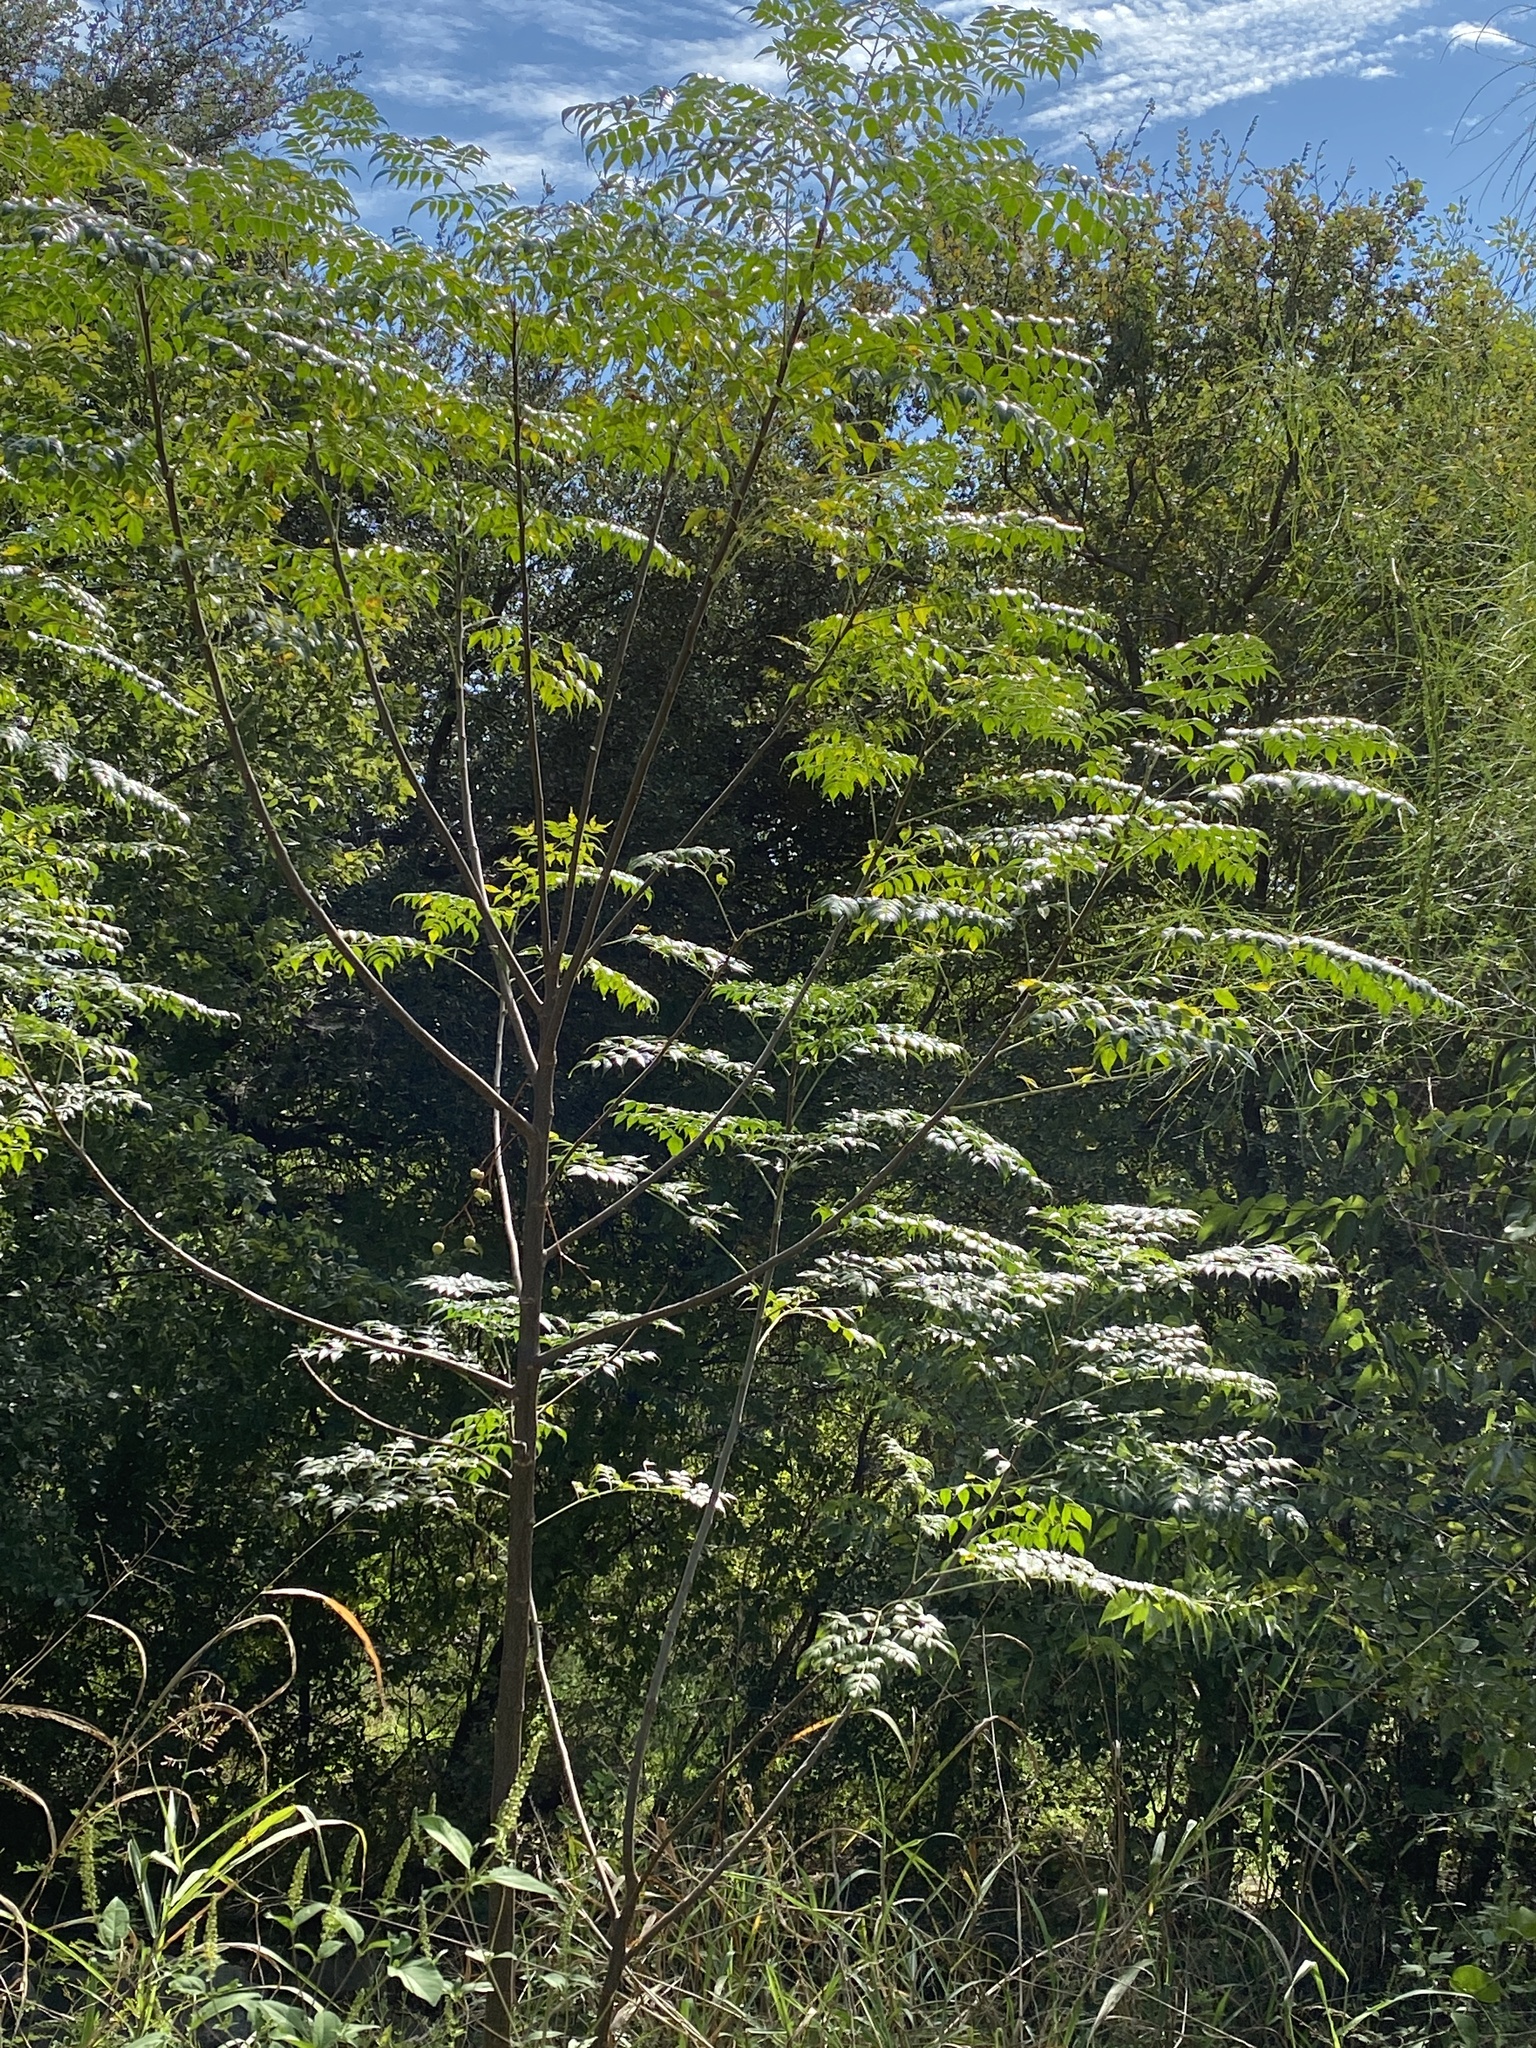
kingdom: Plantae
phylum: Tracheophyta
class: Magnoliopsida
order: Sapindales
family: Meliaceae
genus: Melia
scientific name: Melia azedarach
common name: Chinaberrytree
